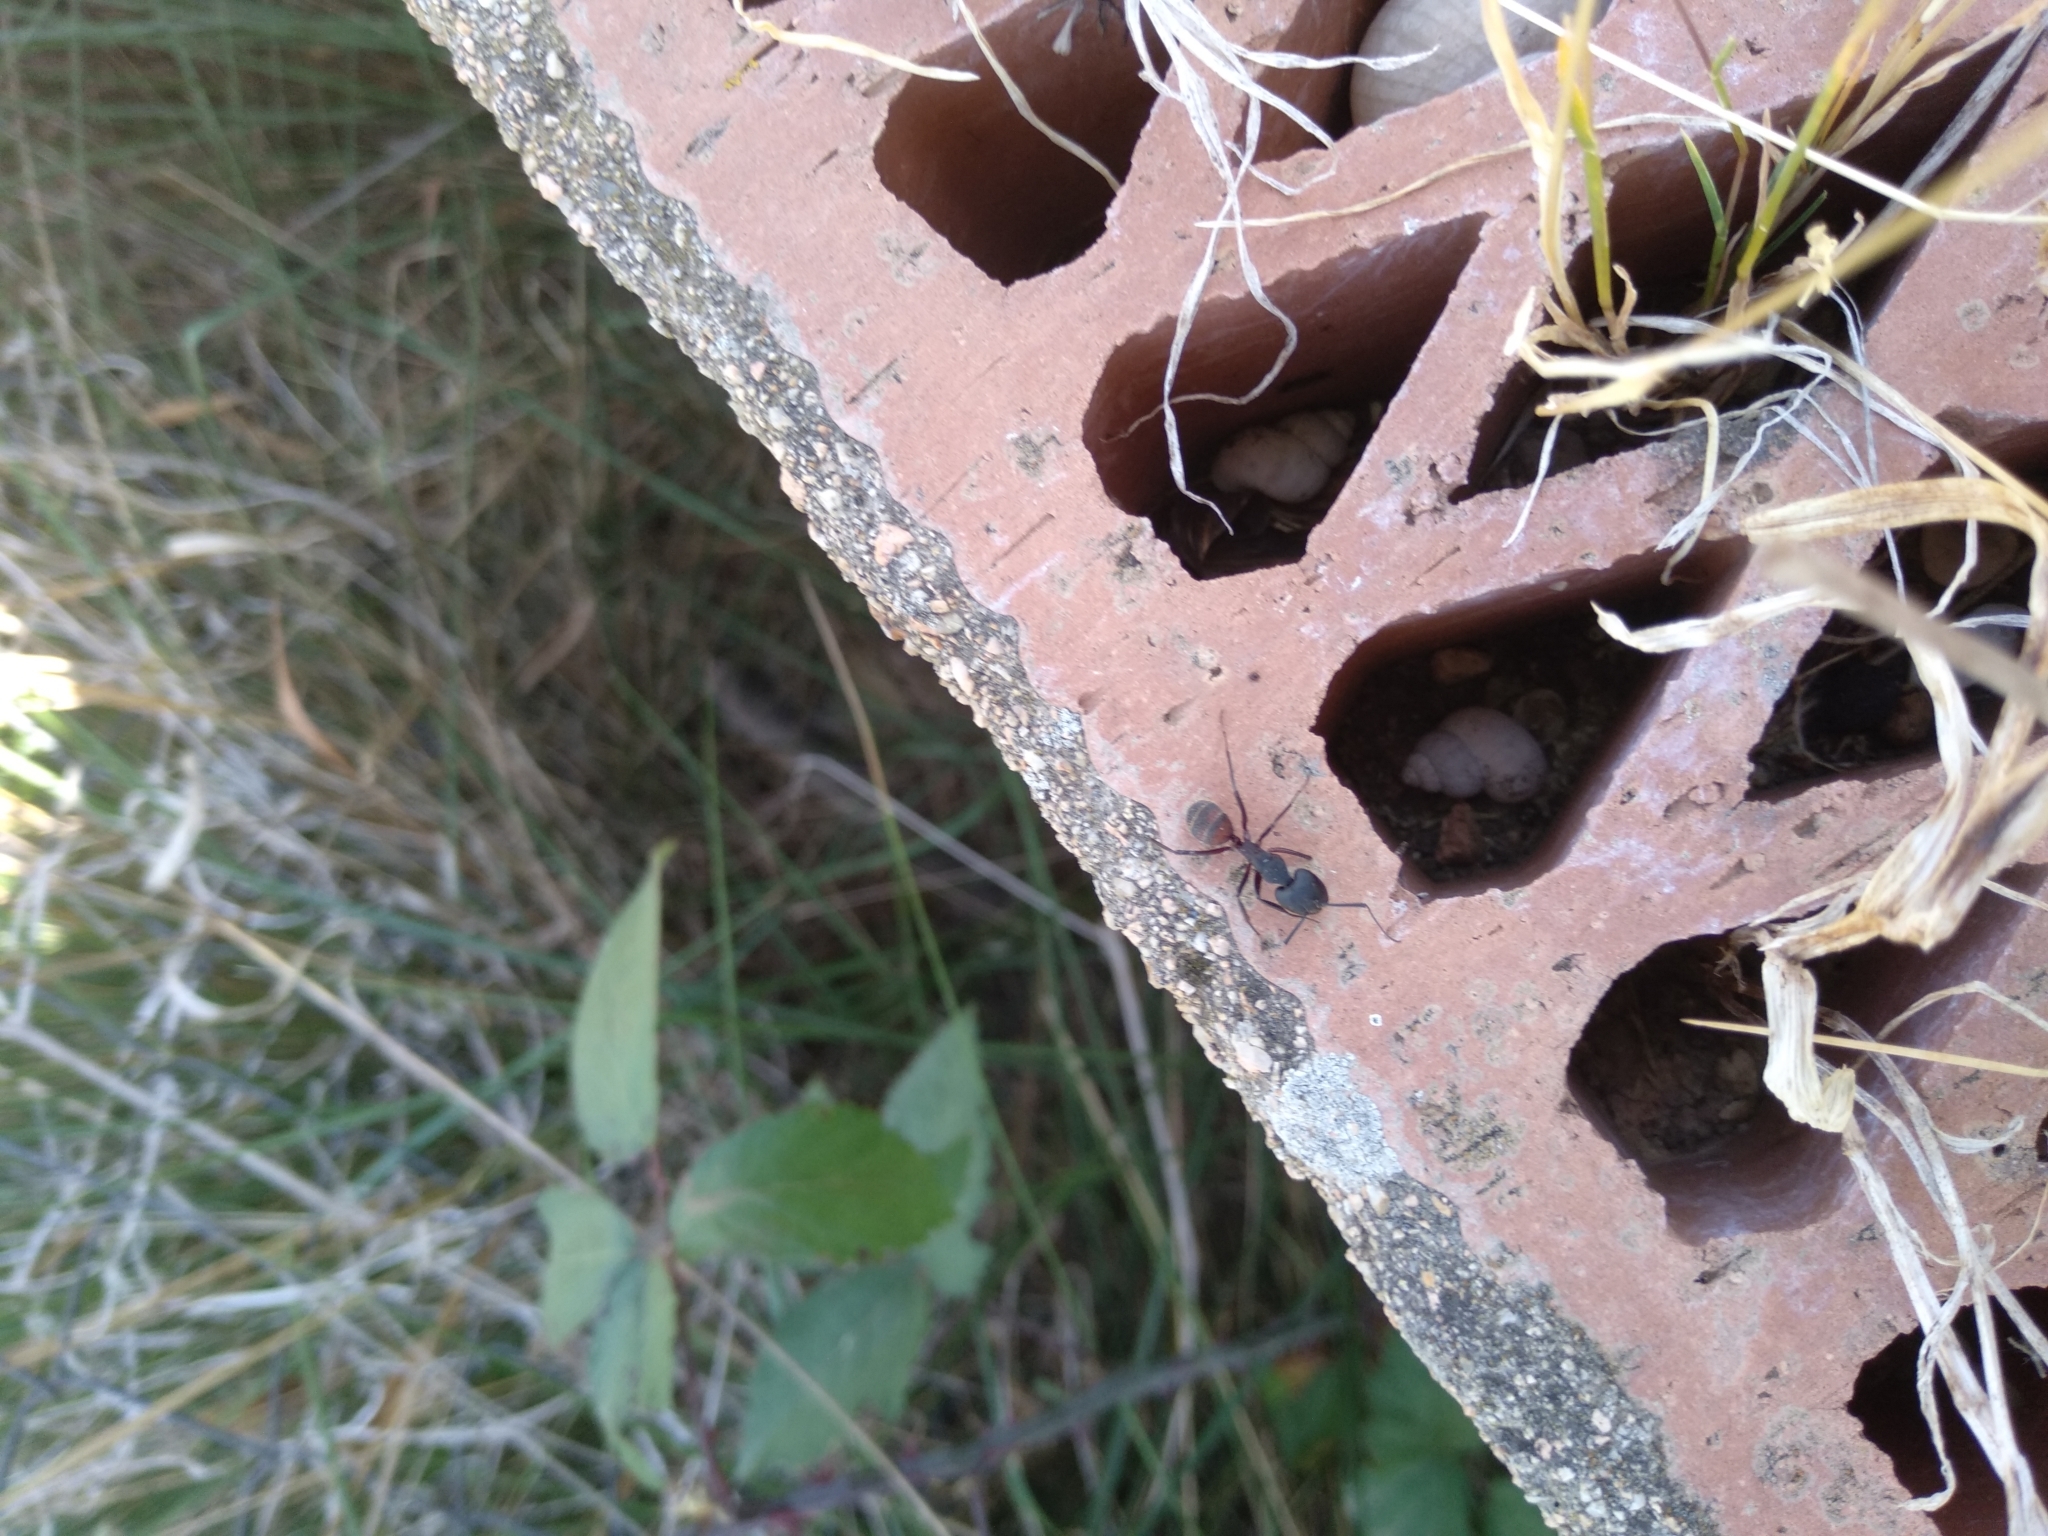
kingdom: Animalia
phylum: Arthropoda
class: Insecta
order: Hymenoptera
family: Formicidae
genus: Camponotus
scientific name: Camponotus cruentatus
